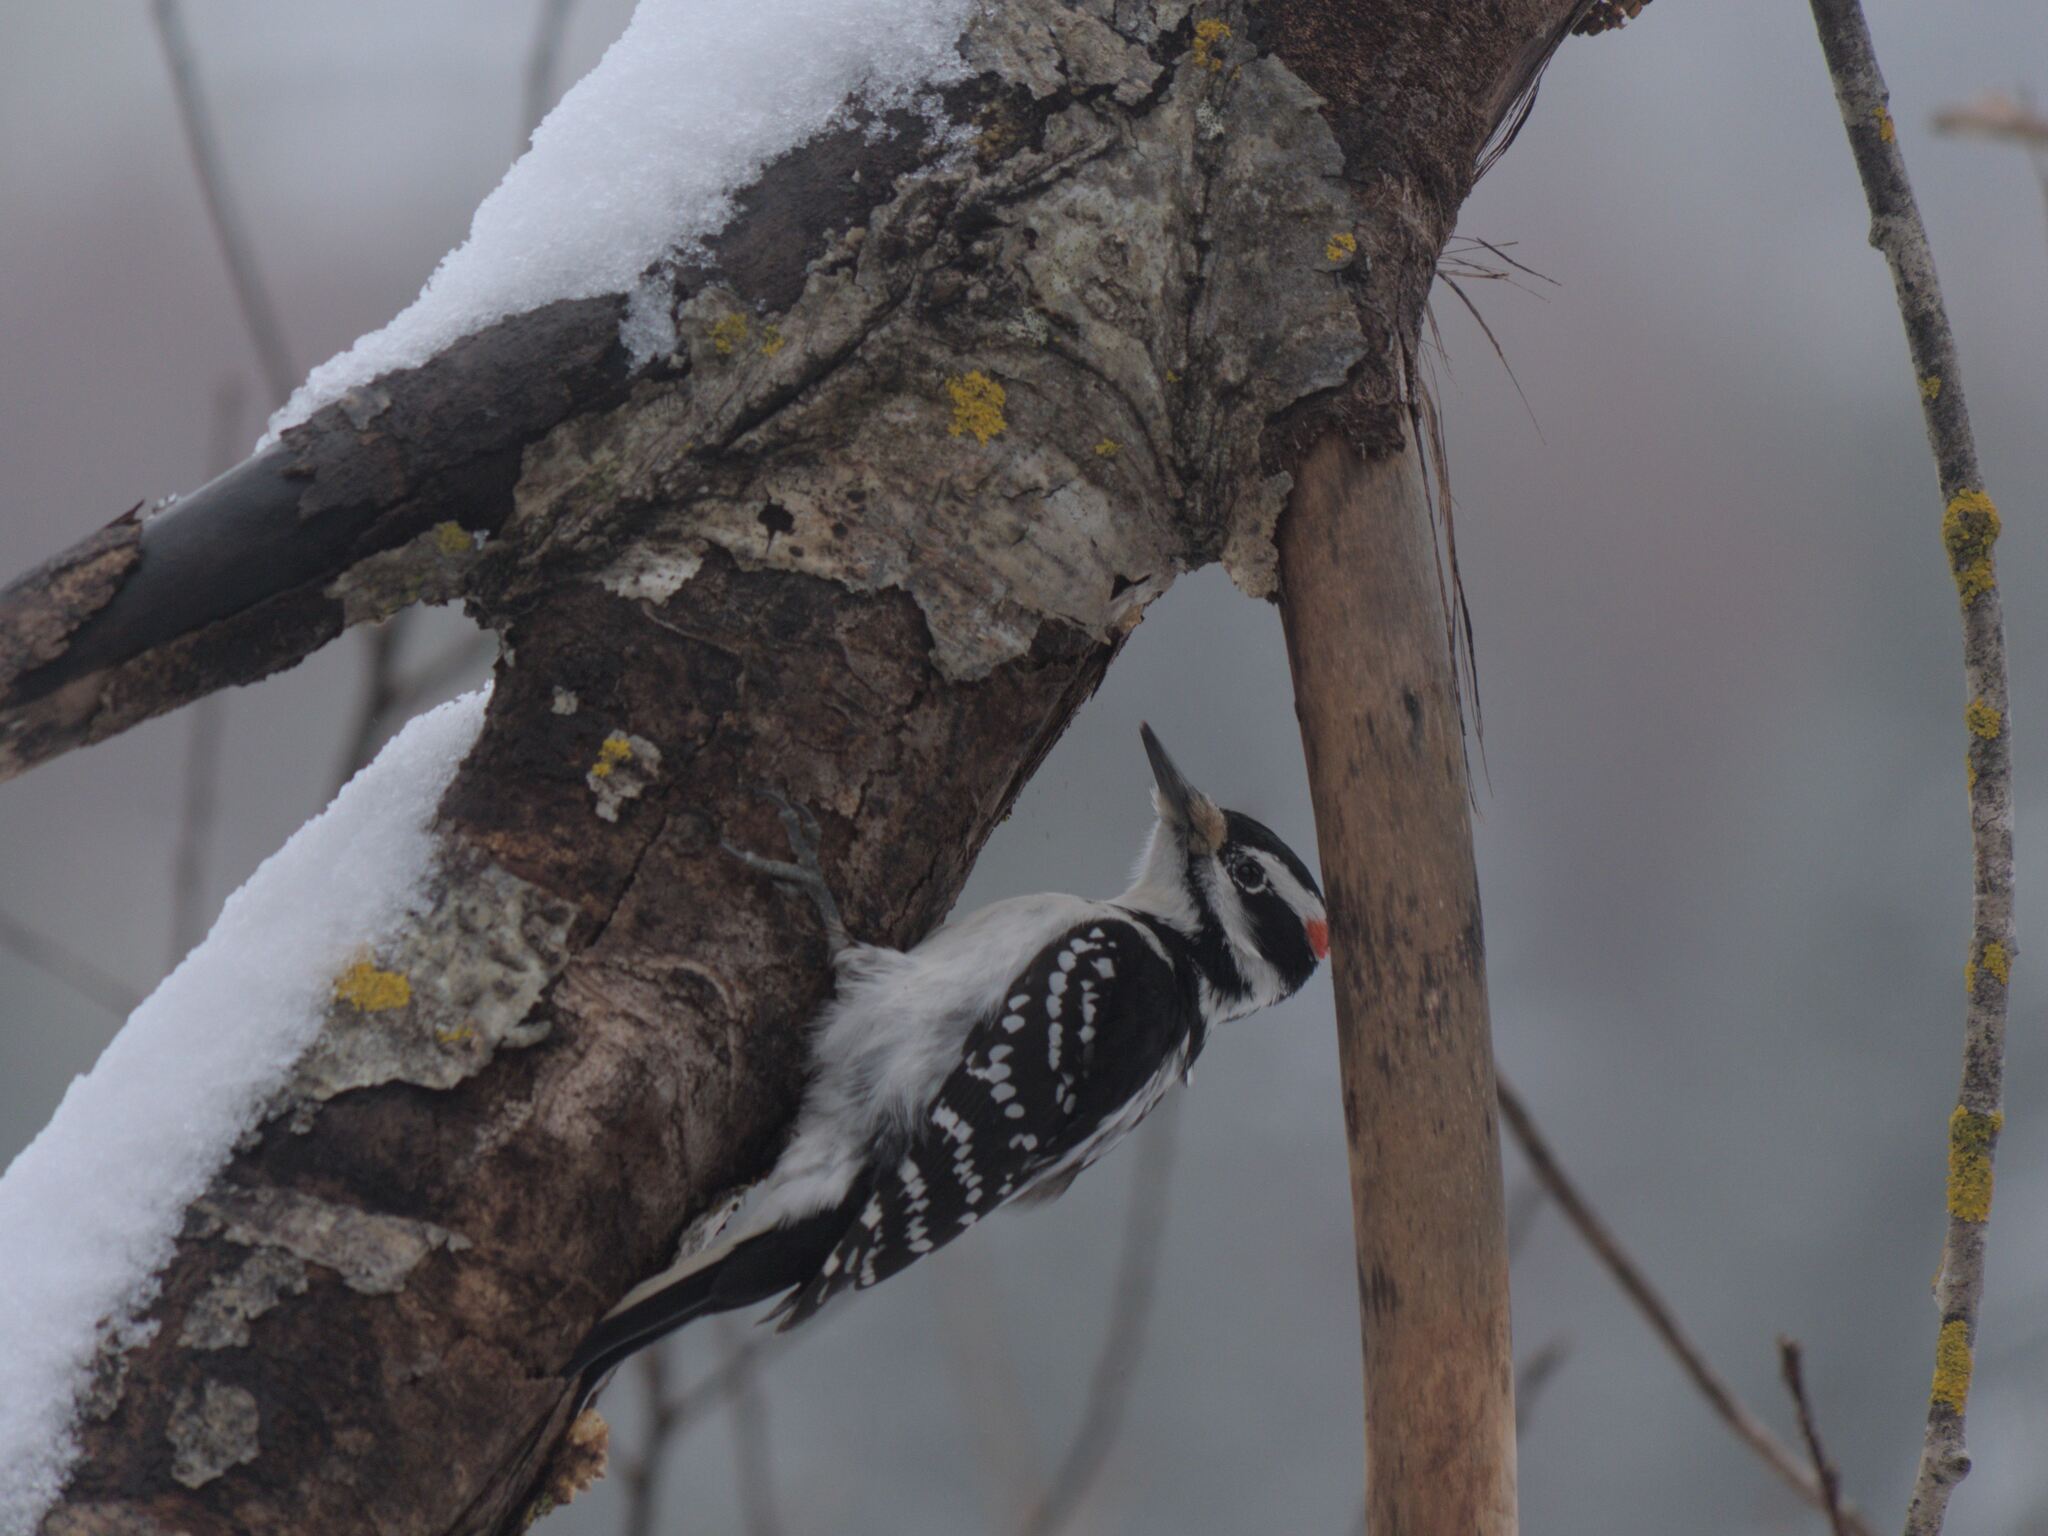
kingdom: Animalia
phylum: Chordata
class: Aves
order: Piciformes
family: Picidae
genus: Leuconotopicus
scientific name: Leuconotopicus villosus
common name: Hairy woodpecker
